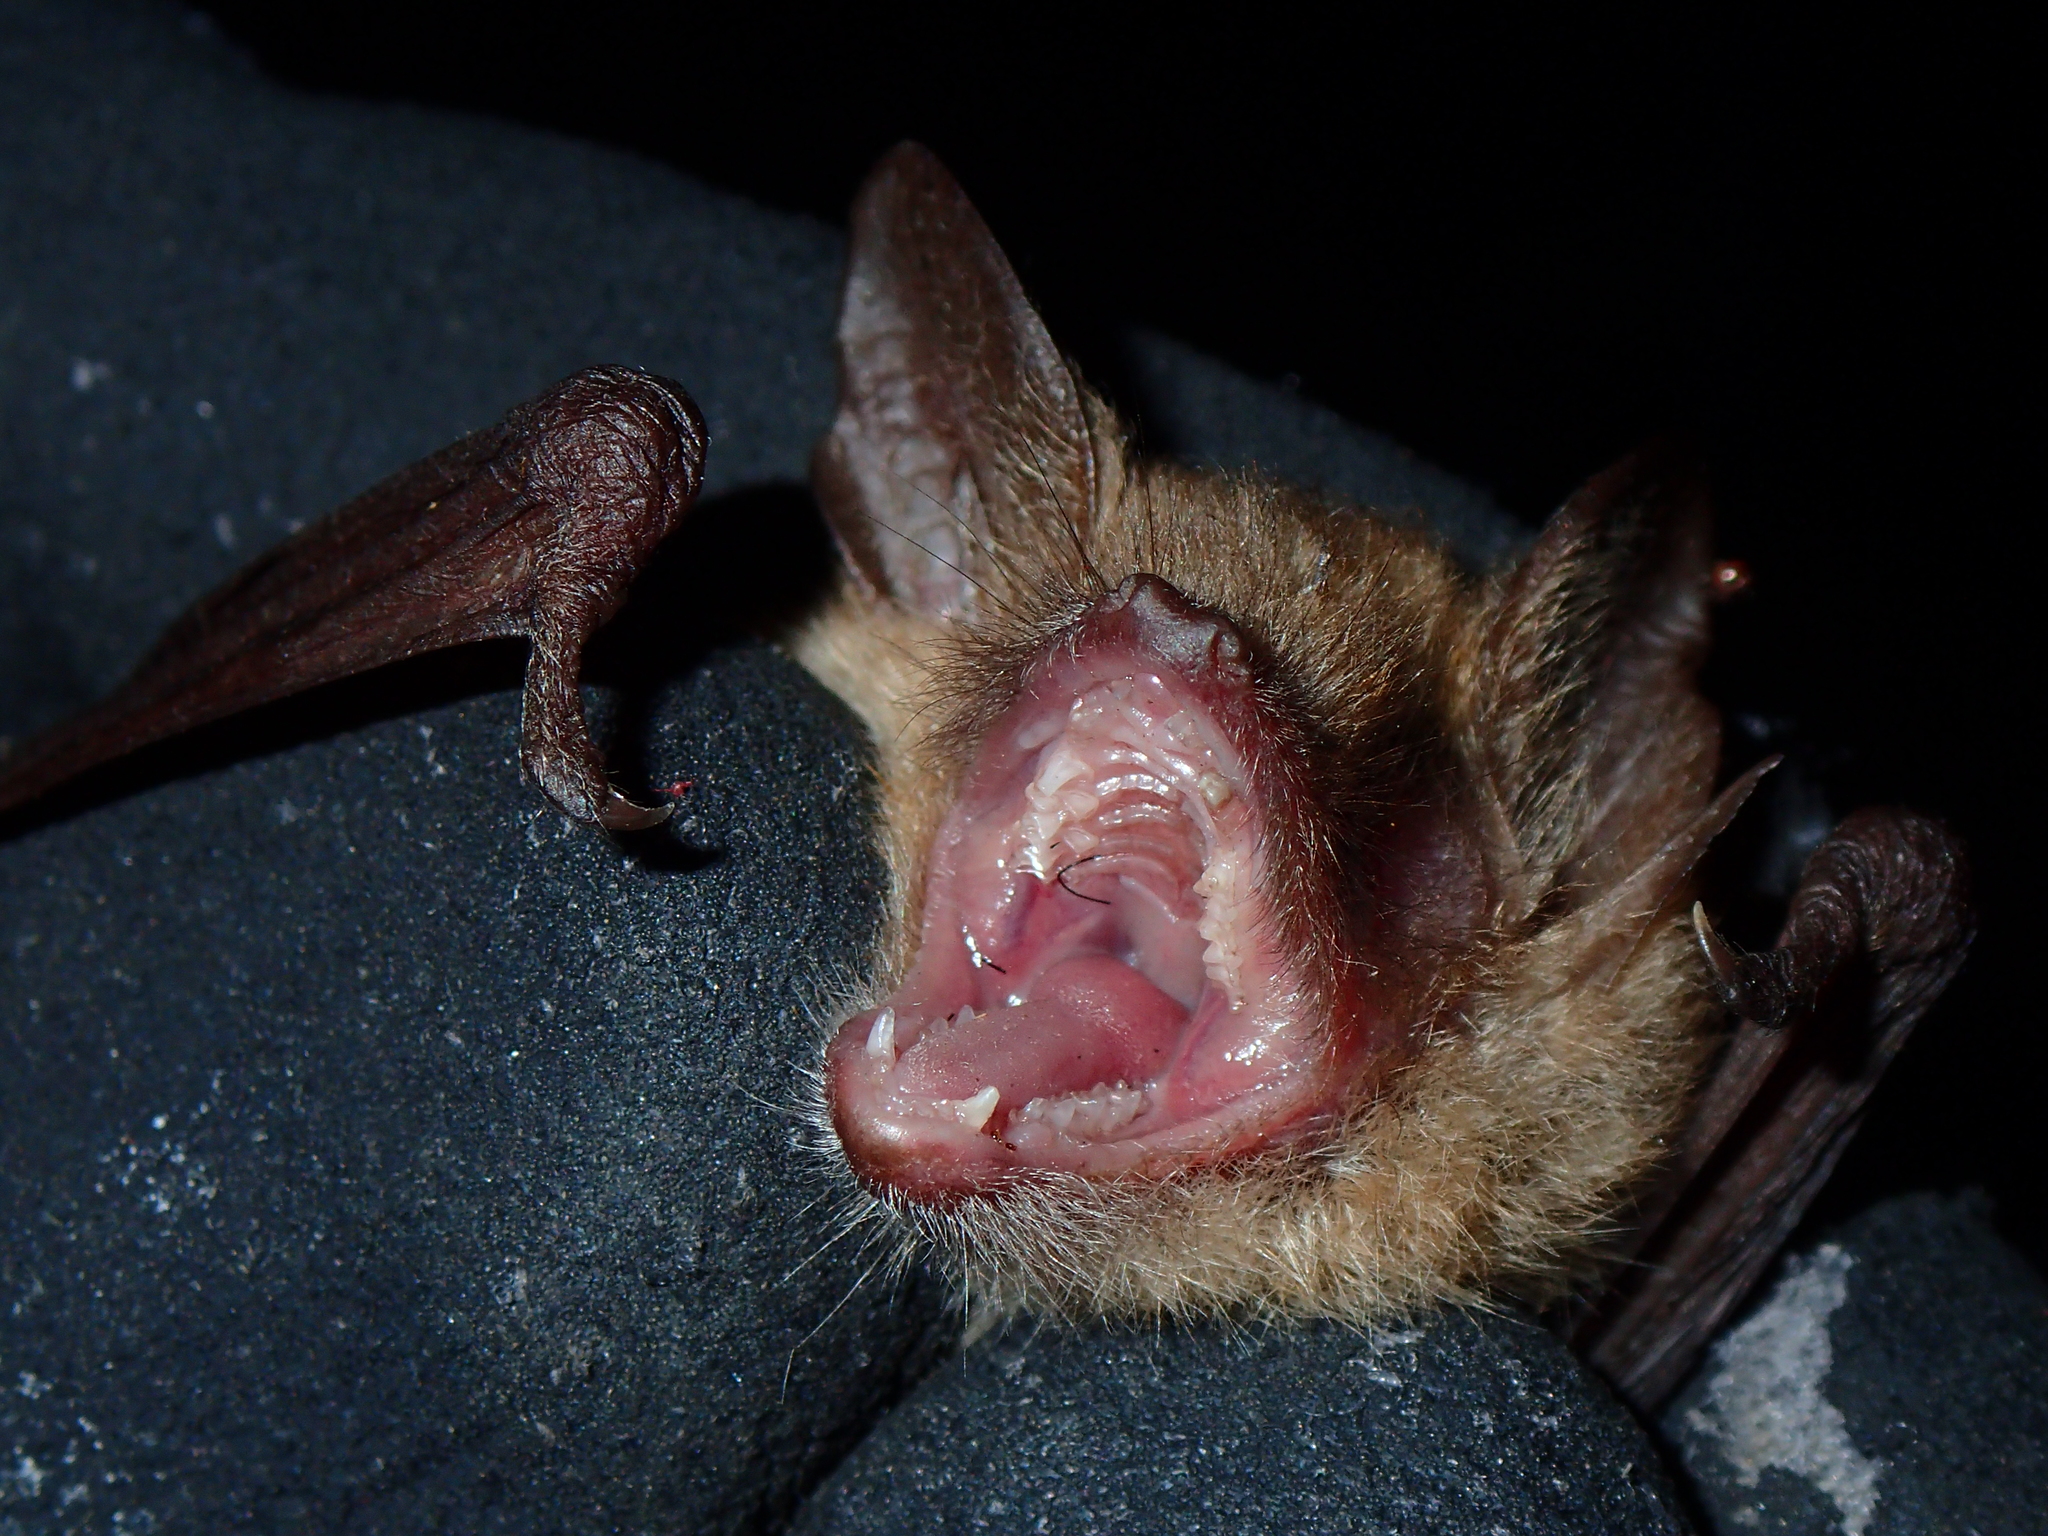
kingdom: Animalia
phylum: Chordata
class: Mammalia
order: Chiroptera
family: Vespertilionidae
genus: Myotis
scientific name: Myotis emarginatus
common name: Geoffroy's bat
